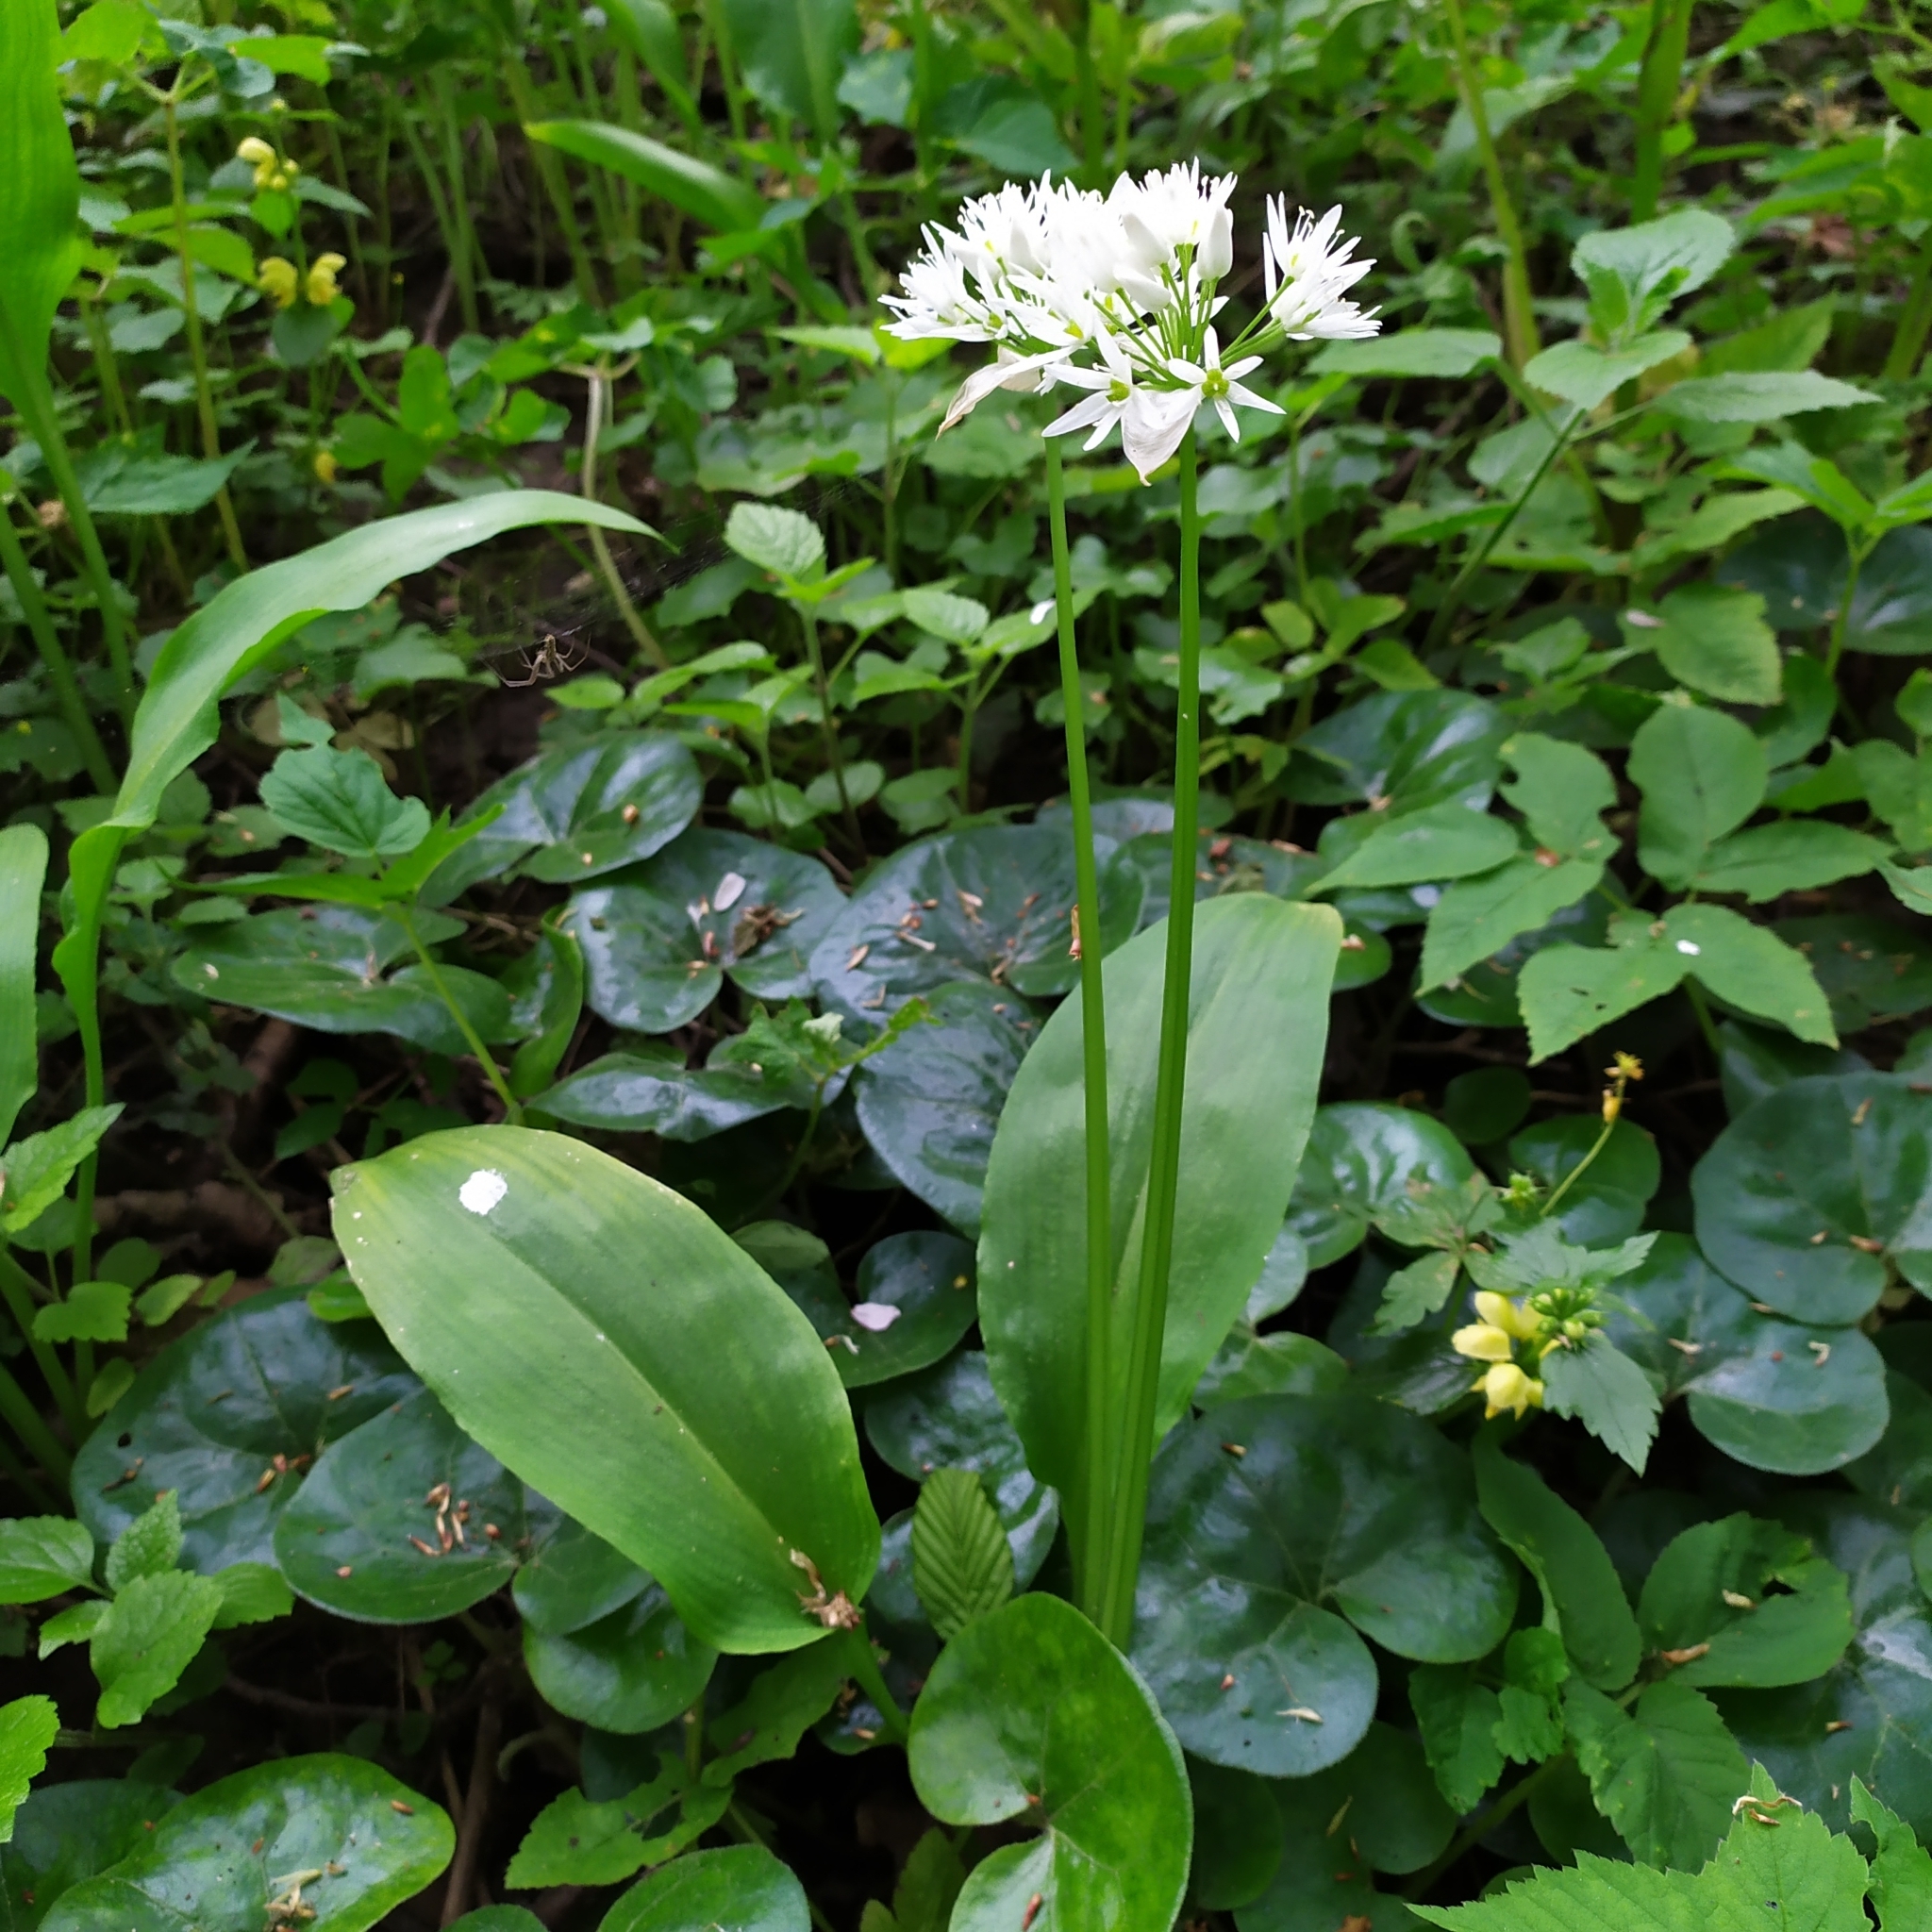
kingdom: Plantae
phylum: Tracheophyta
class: Liliopsida
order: Asparagales
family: Amaryllidaceae
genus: Allium
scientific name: Allium ursinum
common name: Ramsons
